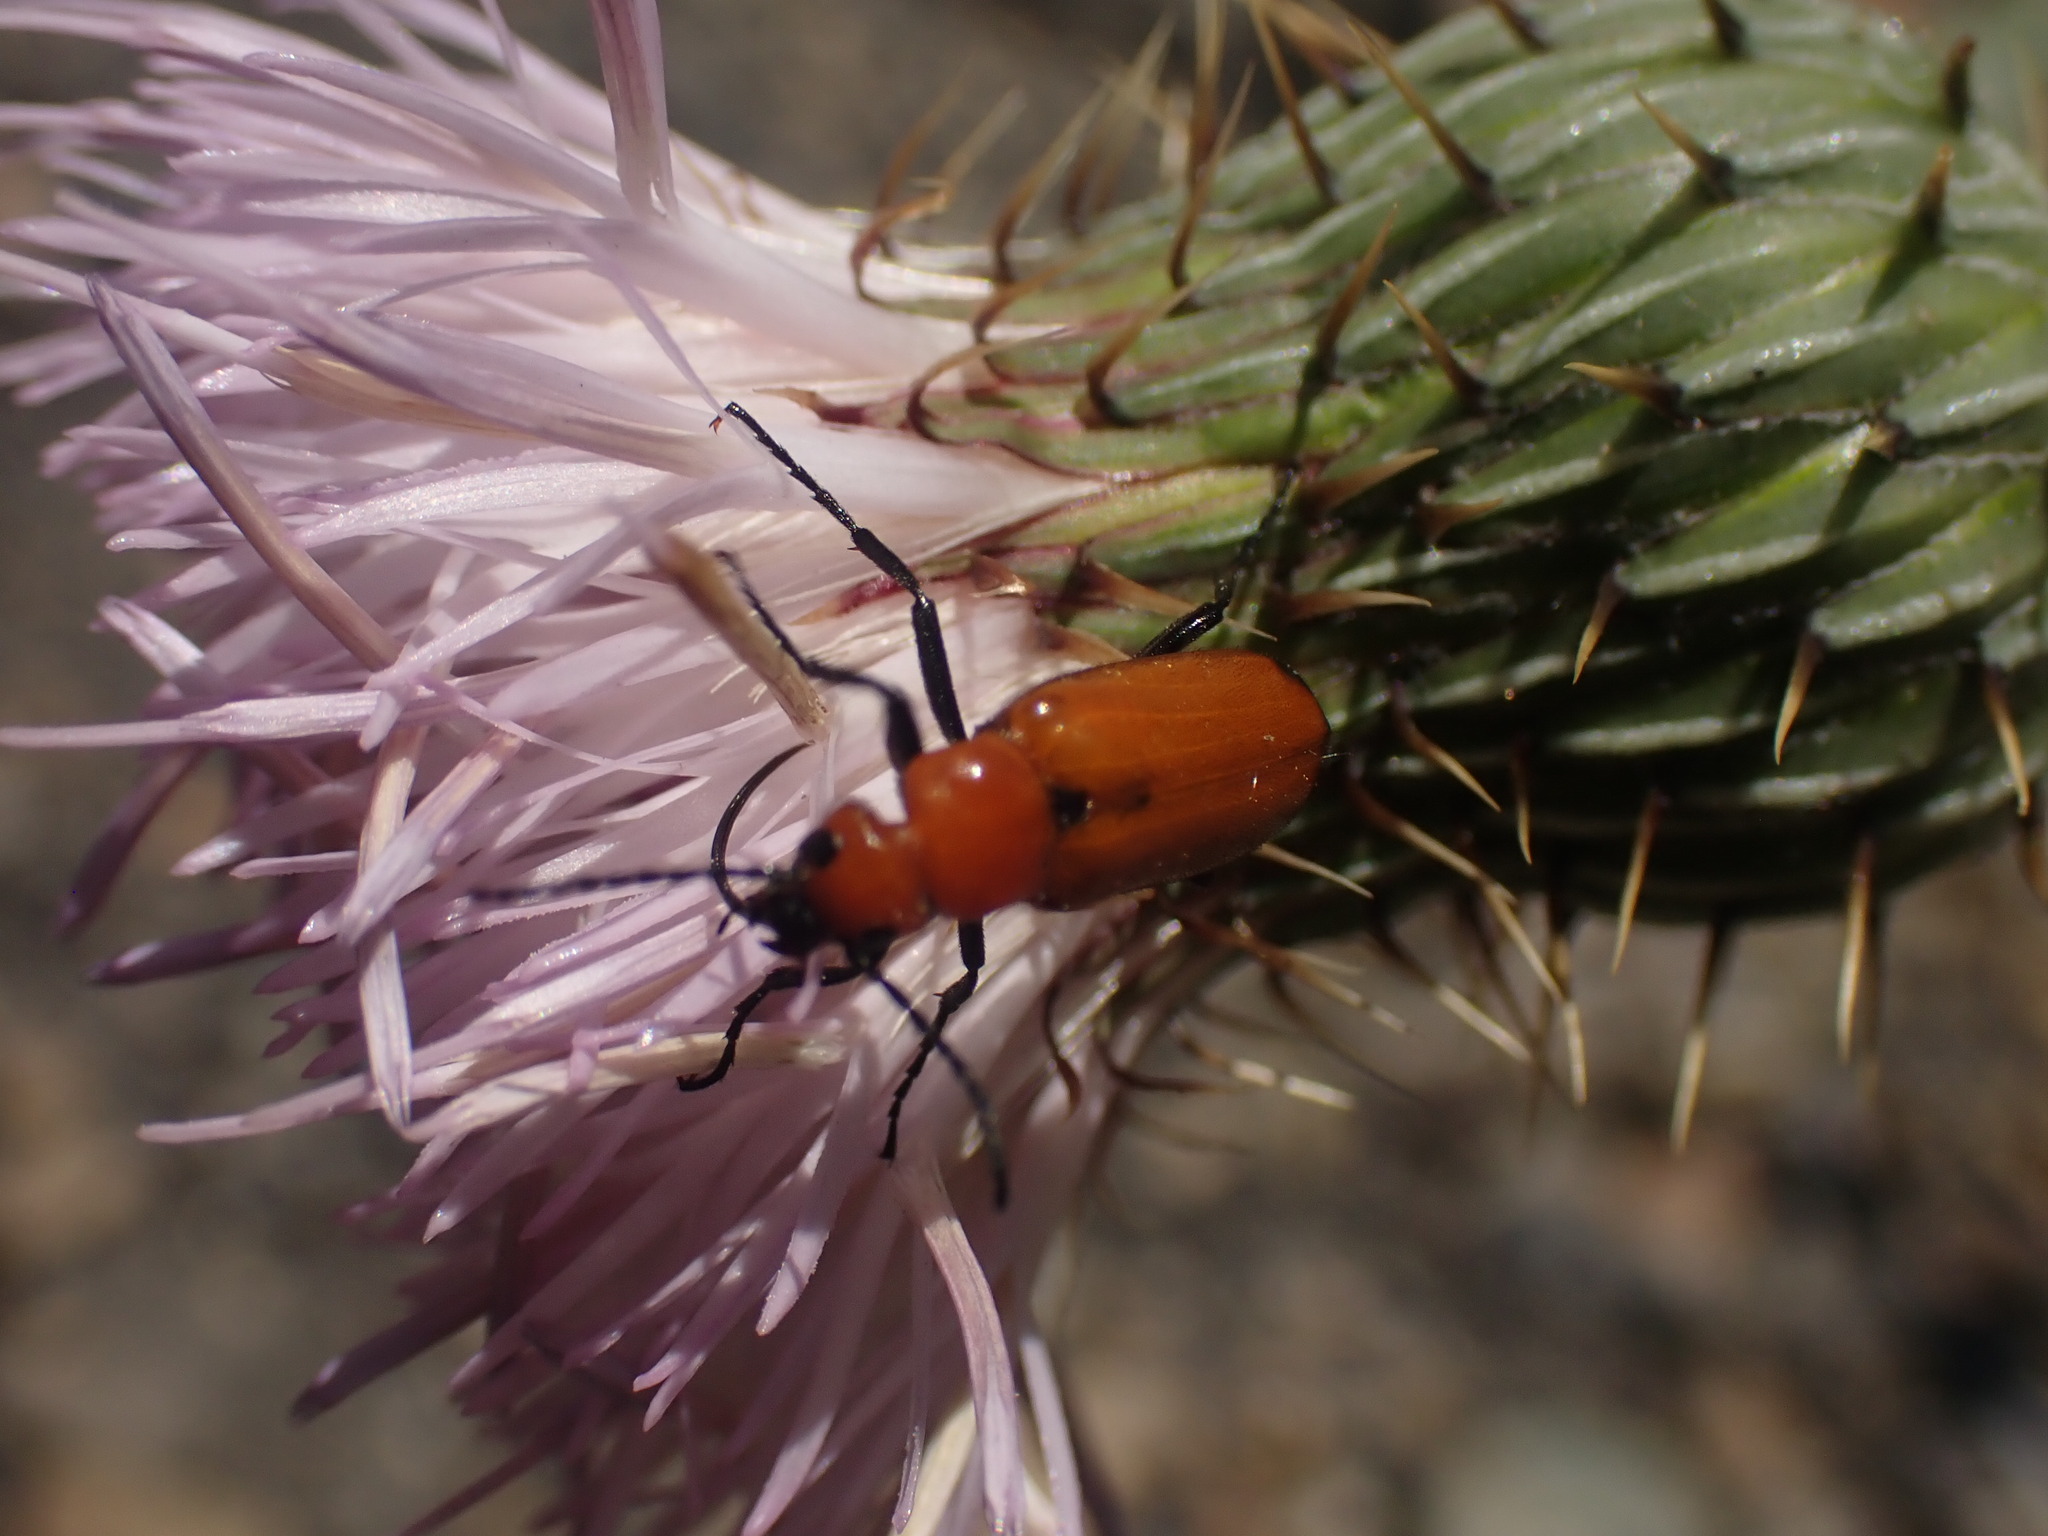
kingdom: Animalia
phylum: Arthropoda
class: Insecta
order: Coleoptera
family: Meloidae
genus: Nemognatha
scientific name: Nemognatha lutea
